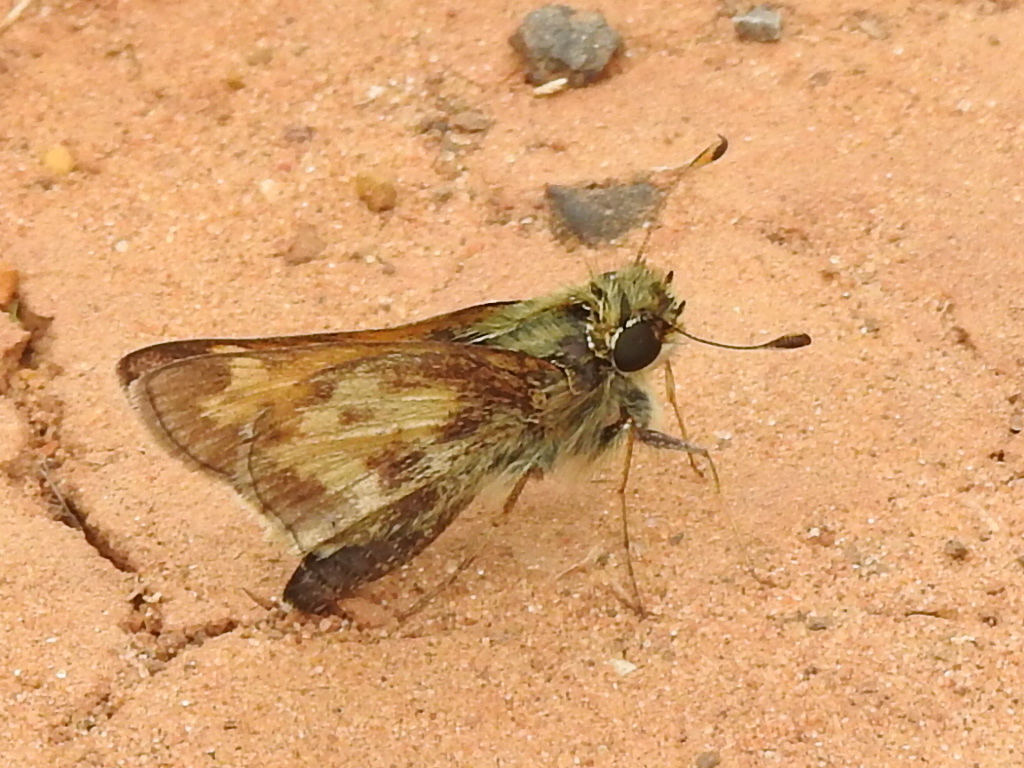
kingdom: Animalia
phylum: Arthropoda
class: Insecta
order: Lepidoptera
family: Hesperiidae
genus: Atalopedes
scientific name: Atalopedes
